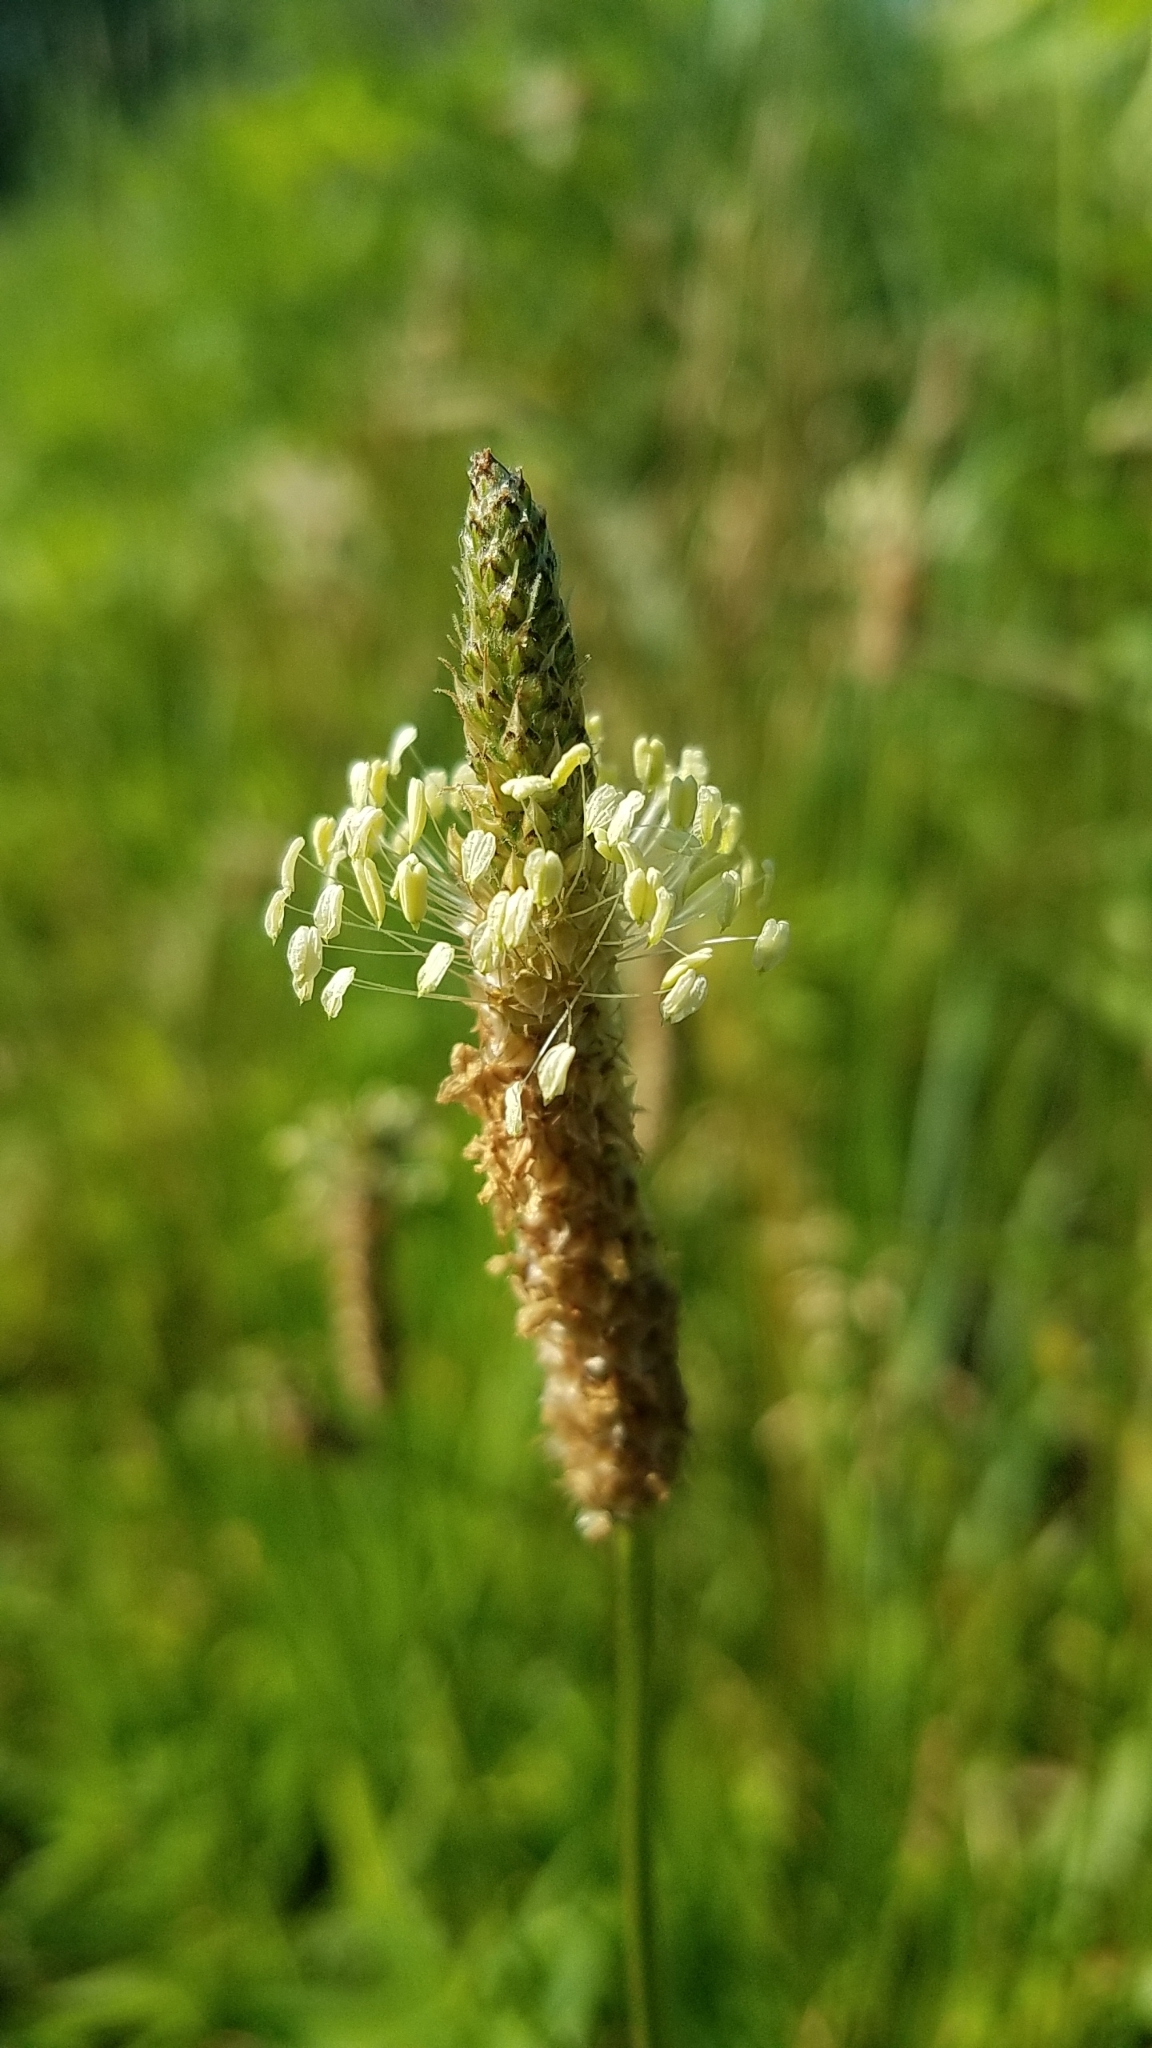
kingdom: Plantae
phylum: Tracheophyta
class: Magnoliopsida
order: Lamiales
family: Plantaginaceae
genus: Plantago
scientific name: Plantago lanceolata
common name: Ribwort plantain
